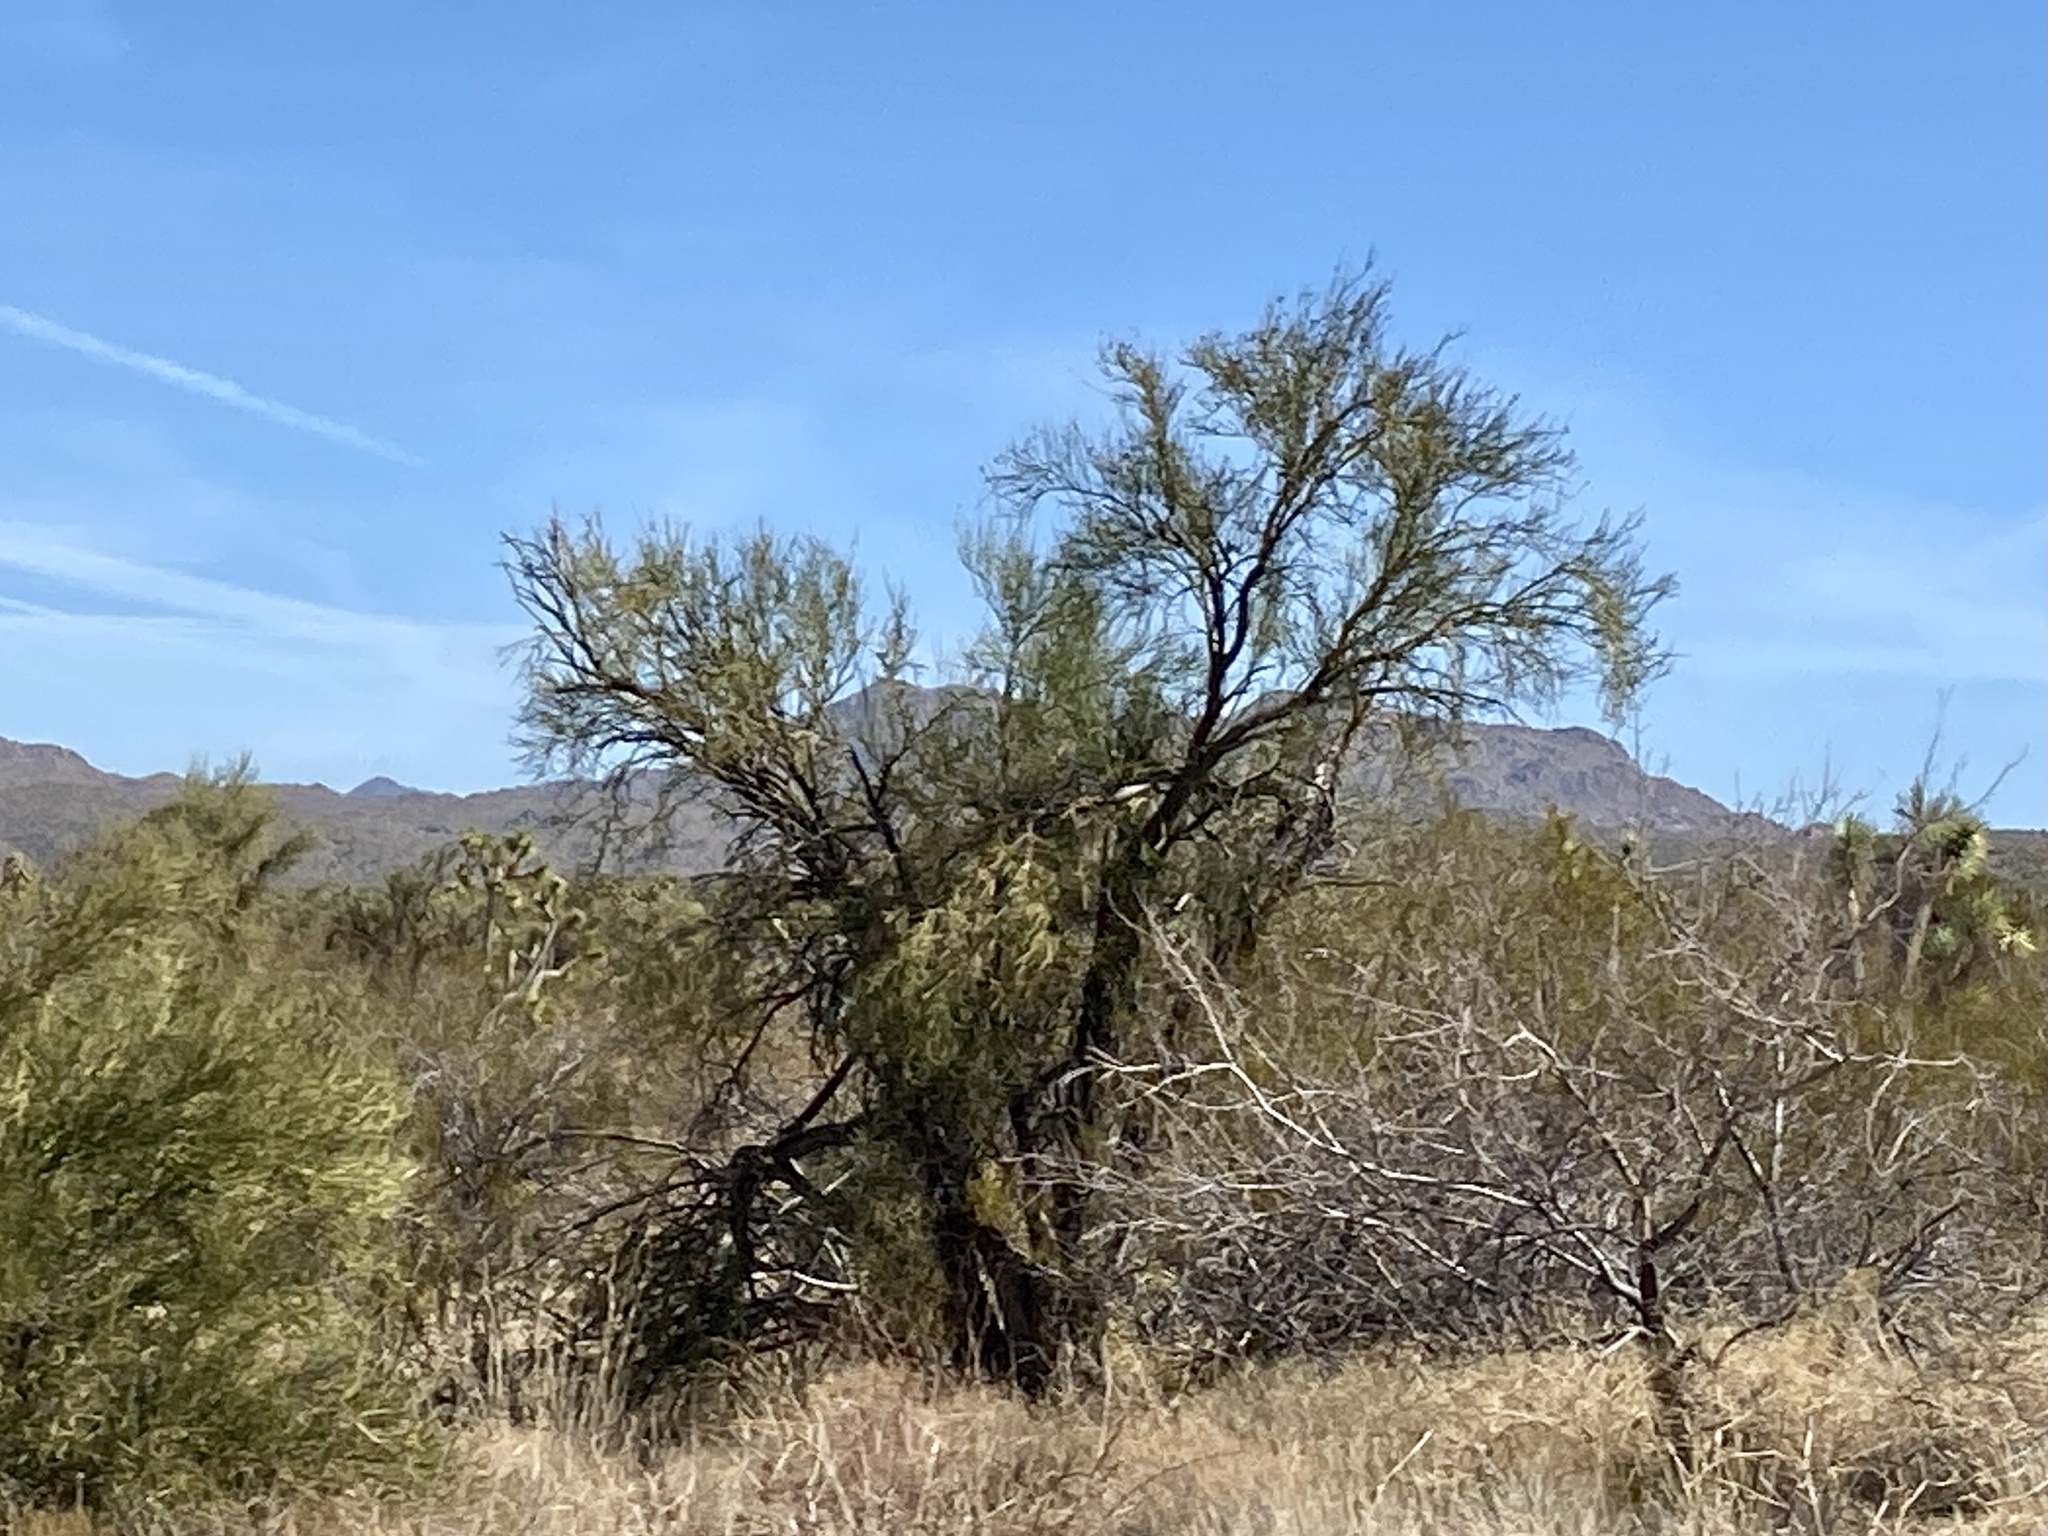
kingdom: Plantae
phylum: Tracheophyta
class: Magnoliopsida
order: Celastrales
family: Celastraceae
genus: Canotia
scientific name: Canotia holacantha
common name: Crucifixion thorns
